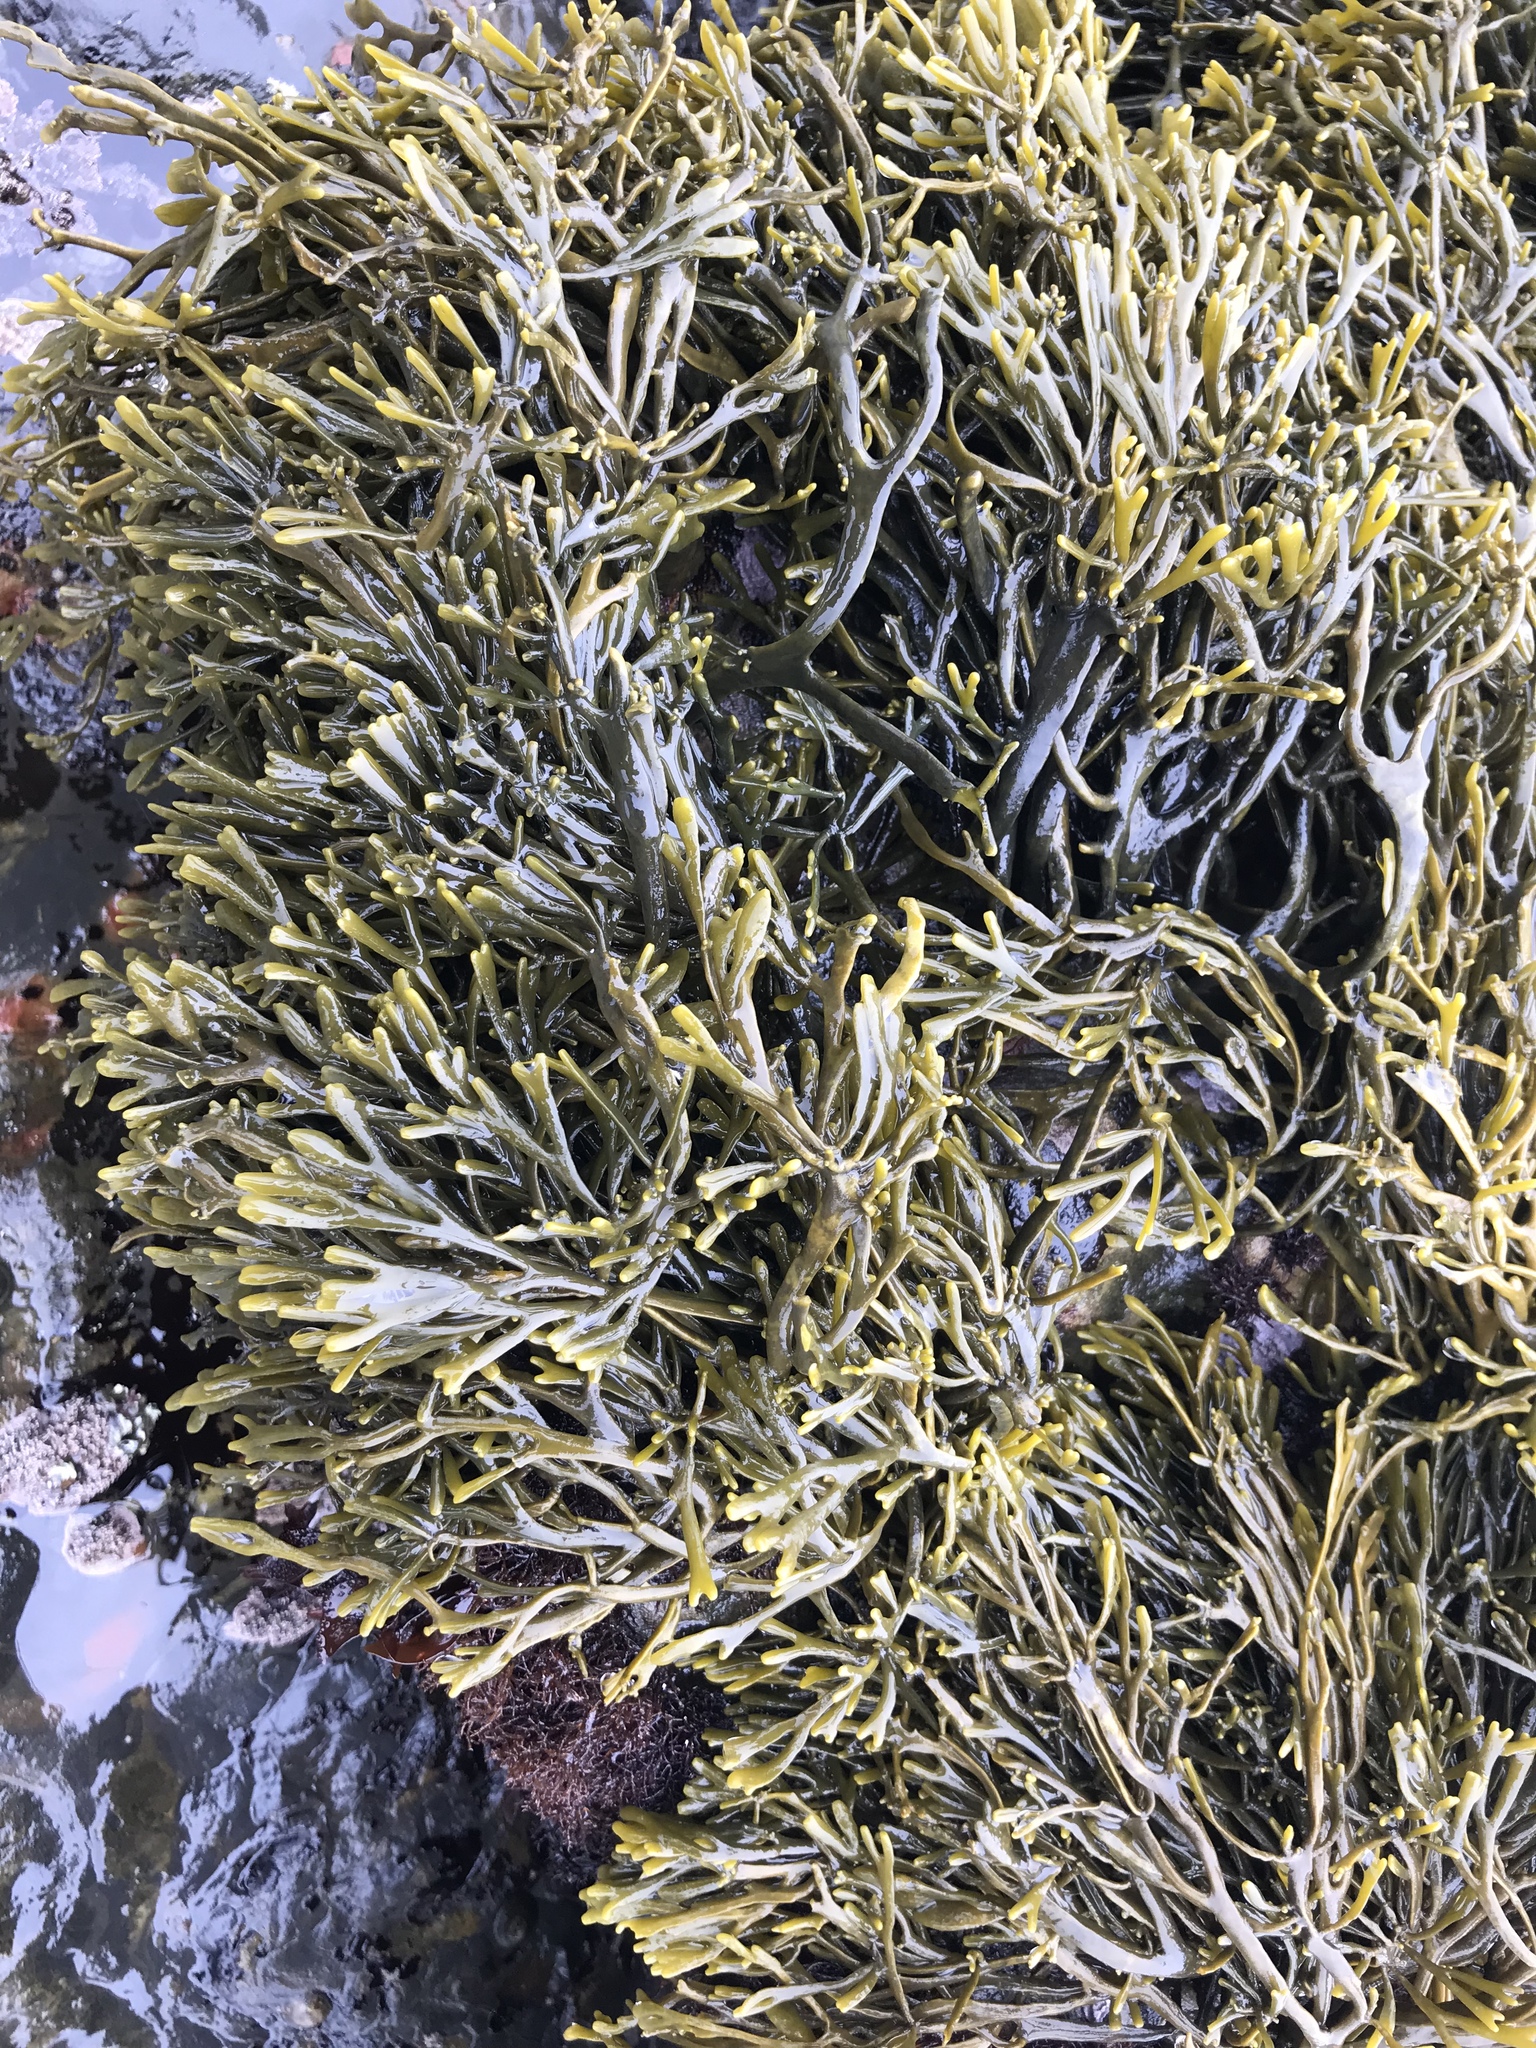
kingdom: Chromista
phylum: Ochrophyta
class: Phaeophyceae
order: Fucales
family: Fucaceae
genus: Silvetia
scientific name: Silvetia
